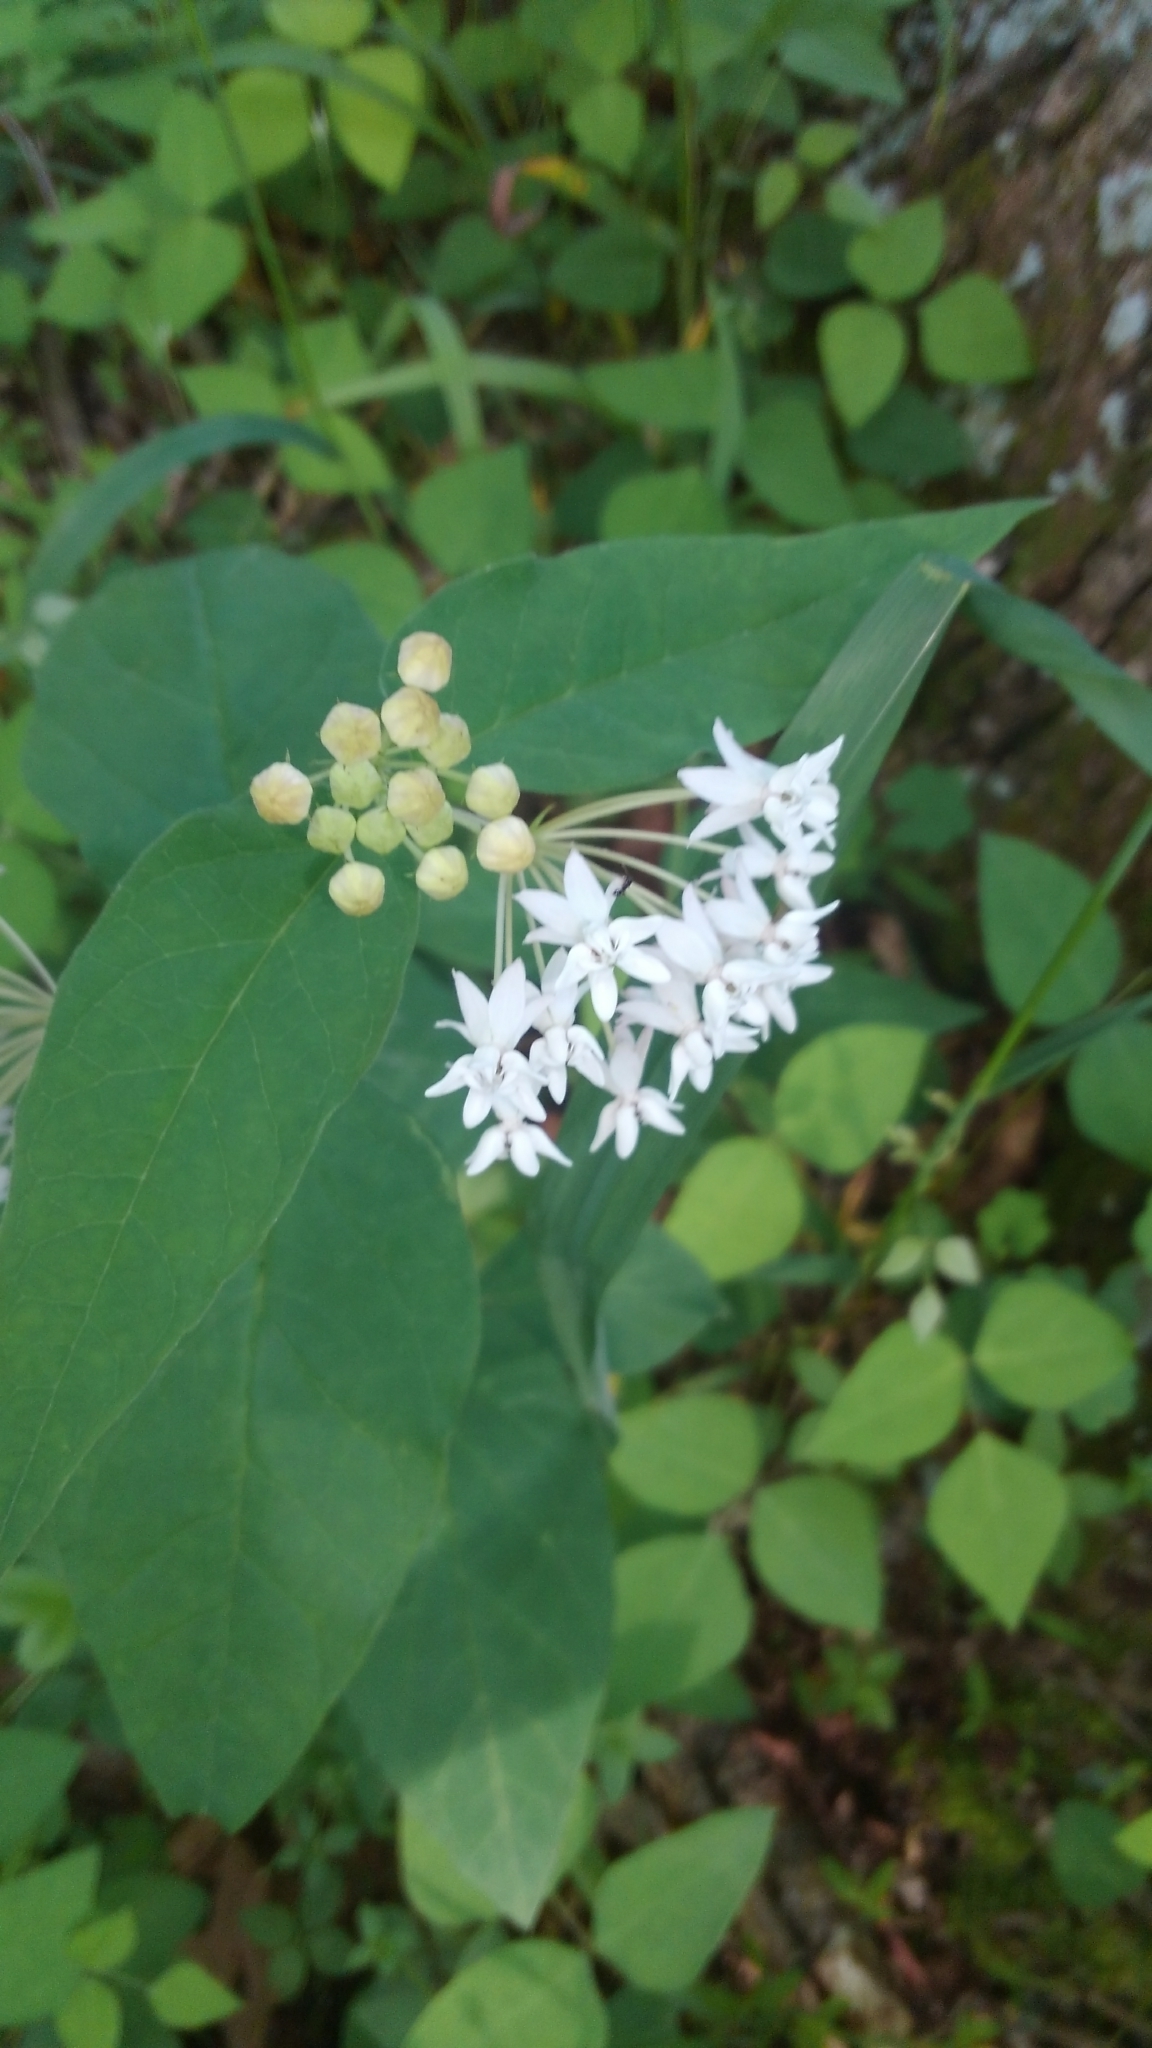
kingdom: Plantae
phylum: Tracheophyta
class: Magnoliopsida
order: Gentianales
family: Apocynaceae
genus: Asclepias
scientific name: Asclepias quadrifolia
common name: Whorled milkweed
